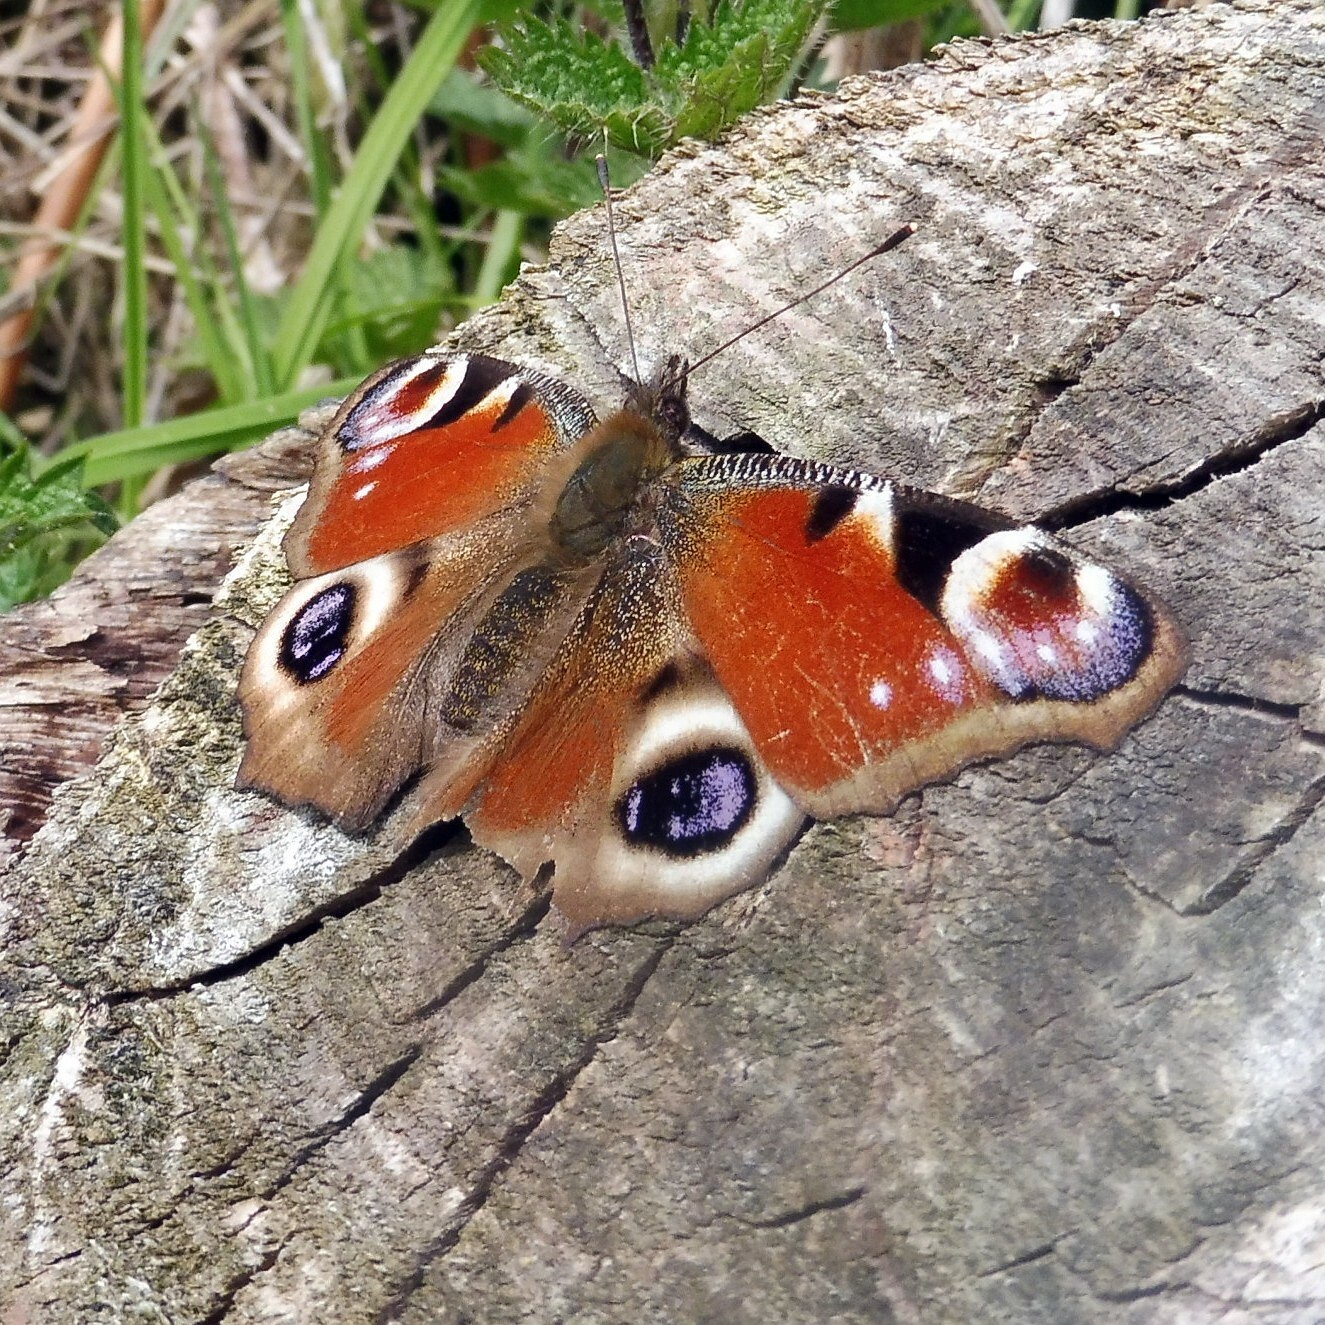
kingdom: Animalia
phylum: Arthropoda
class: Insecta
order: Lepidoptera
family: Nymphalidae
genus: Aglais
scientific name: Aglais io
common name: Peacock
